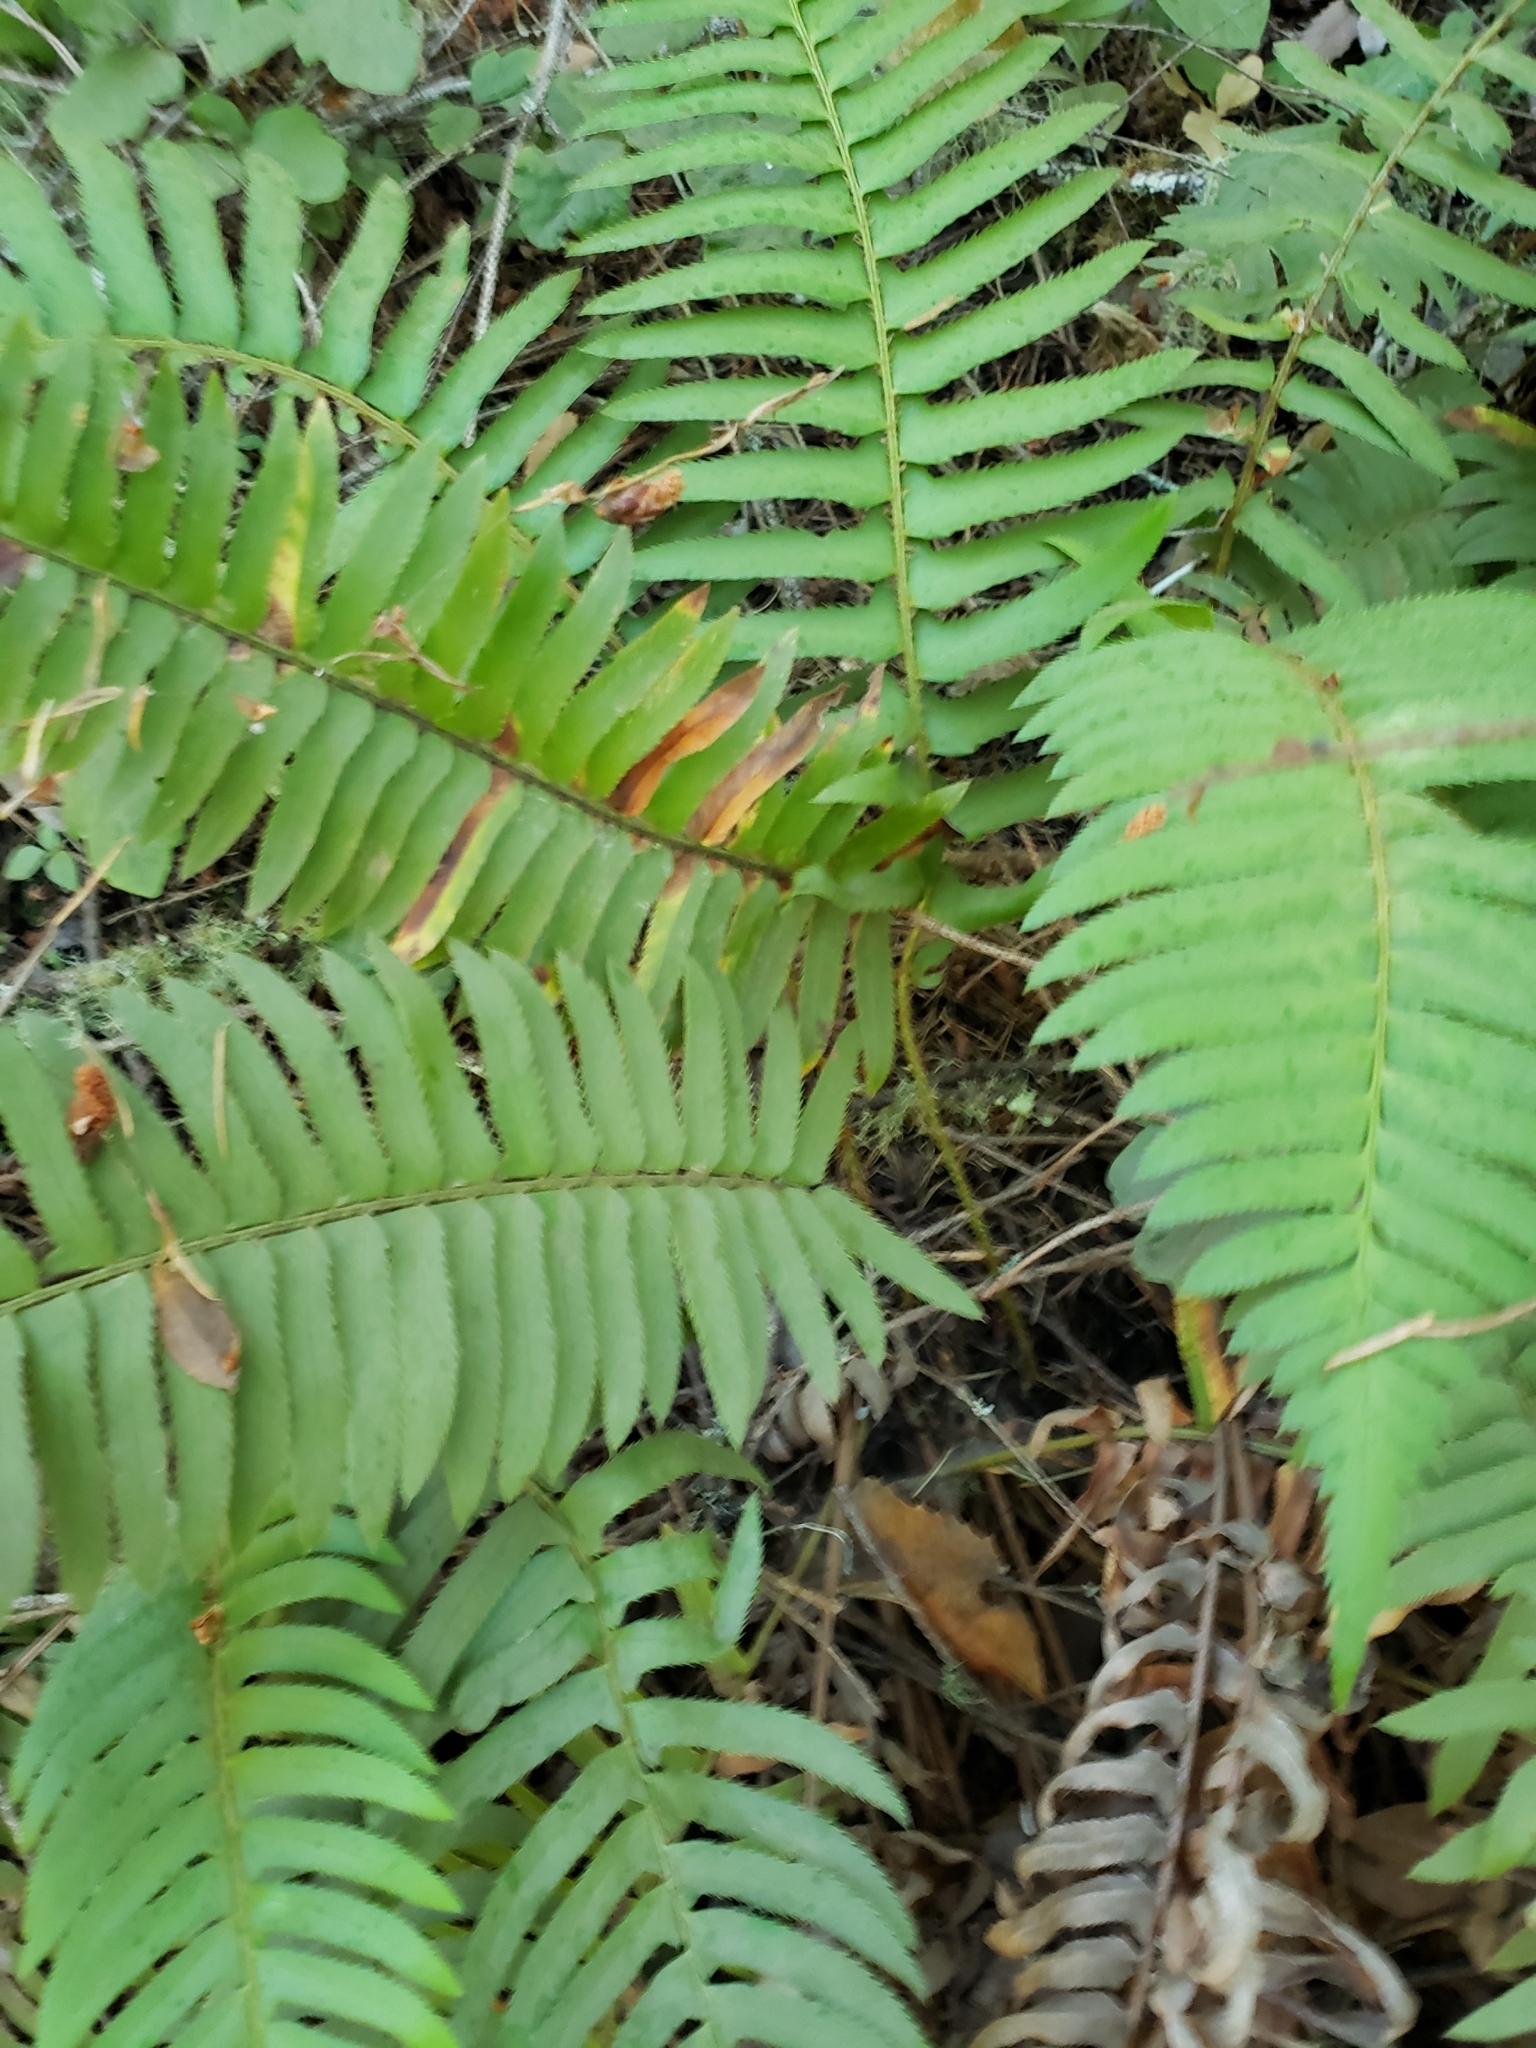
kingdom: Plantae
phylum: Tracheophyta
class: Polypodiopsida
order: Polypodiales
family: Dryopteridaceae
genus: Polystichum
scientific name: Polystichum munitum
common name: Western sword-fern
